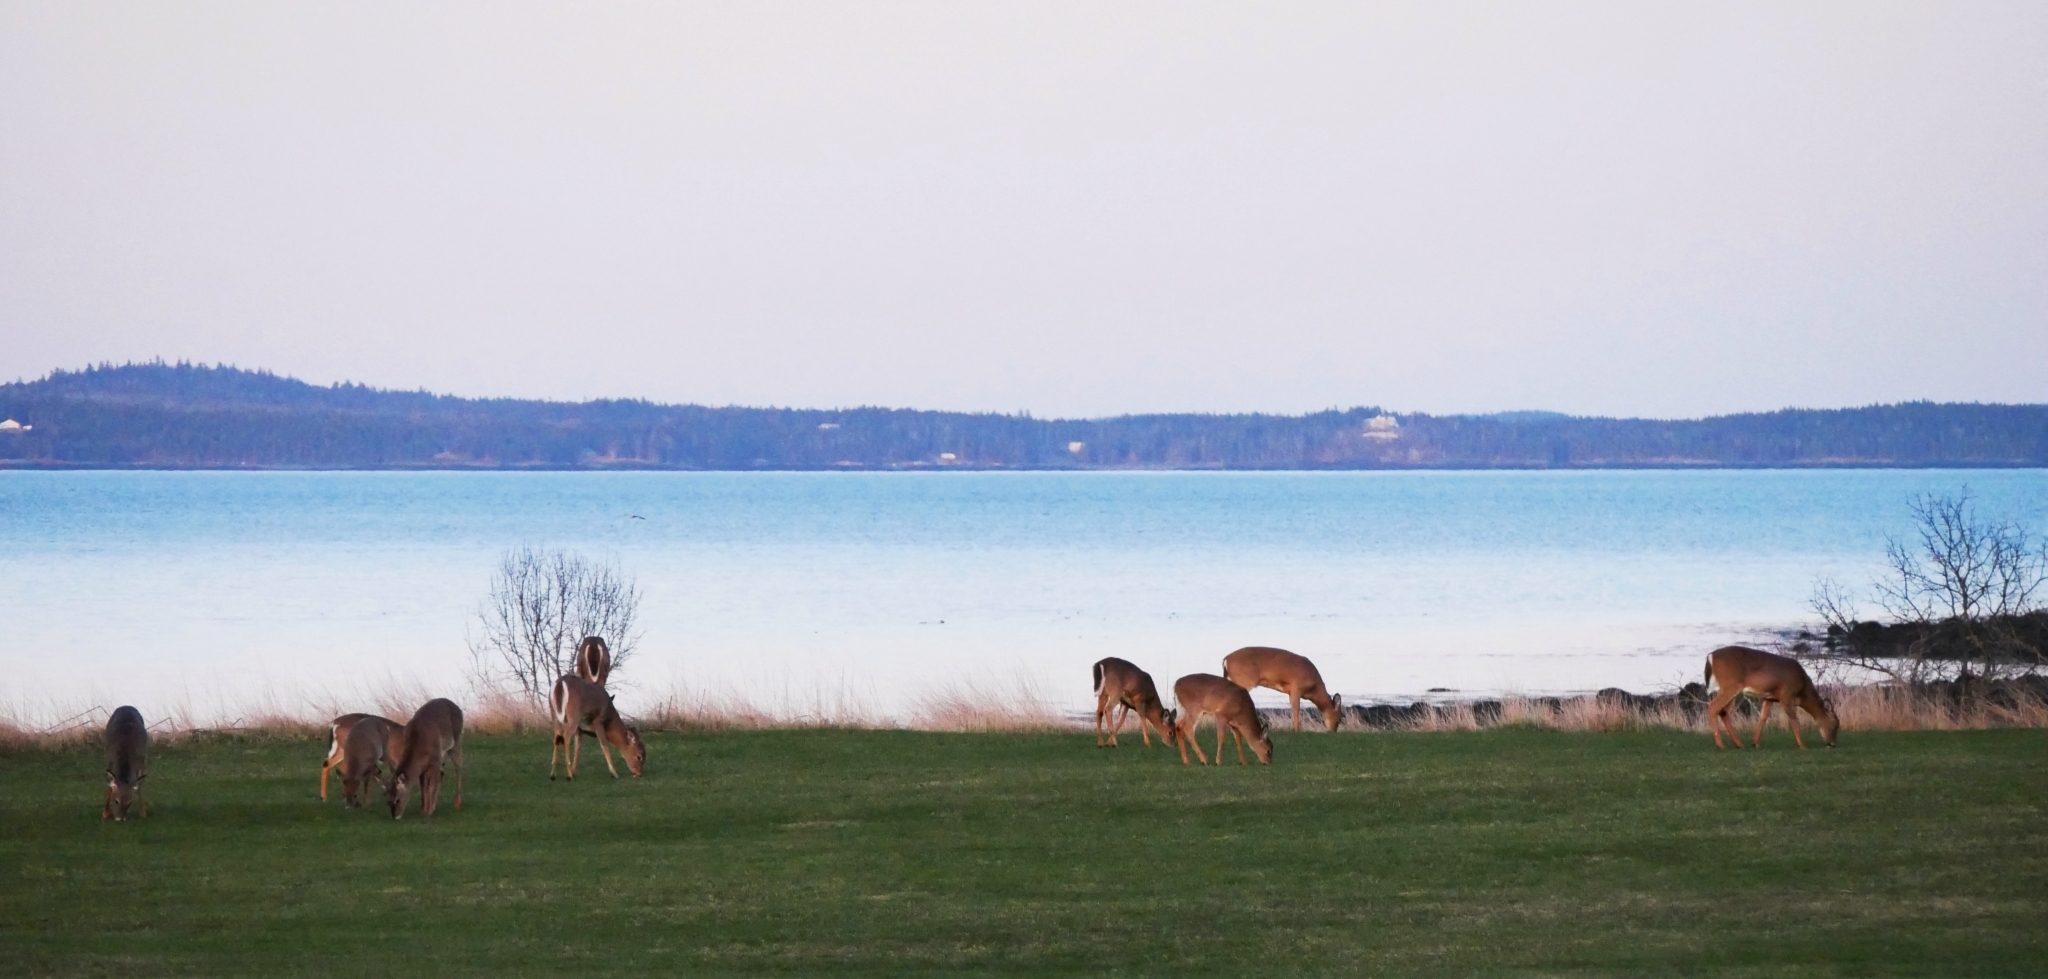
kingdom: Animalia
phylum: Chordata
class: Mammalia
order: Artiodactyla
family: Cervidae
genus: Odocoileus
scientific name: Odocoileus virginianus
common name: White-tailed deer
